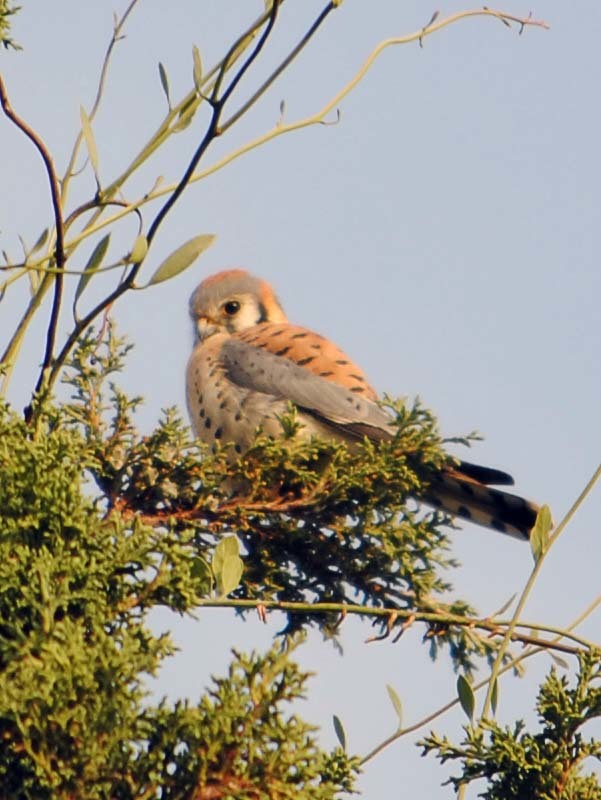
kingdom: Animalia
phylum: Chordata
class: Aves
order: Falconiformes
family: Falconidae
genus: Falco
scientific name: Falco sparverius
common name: American kestrel
